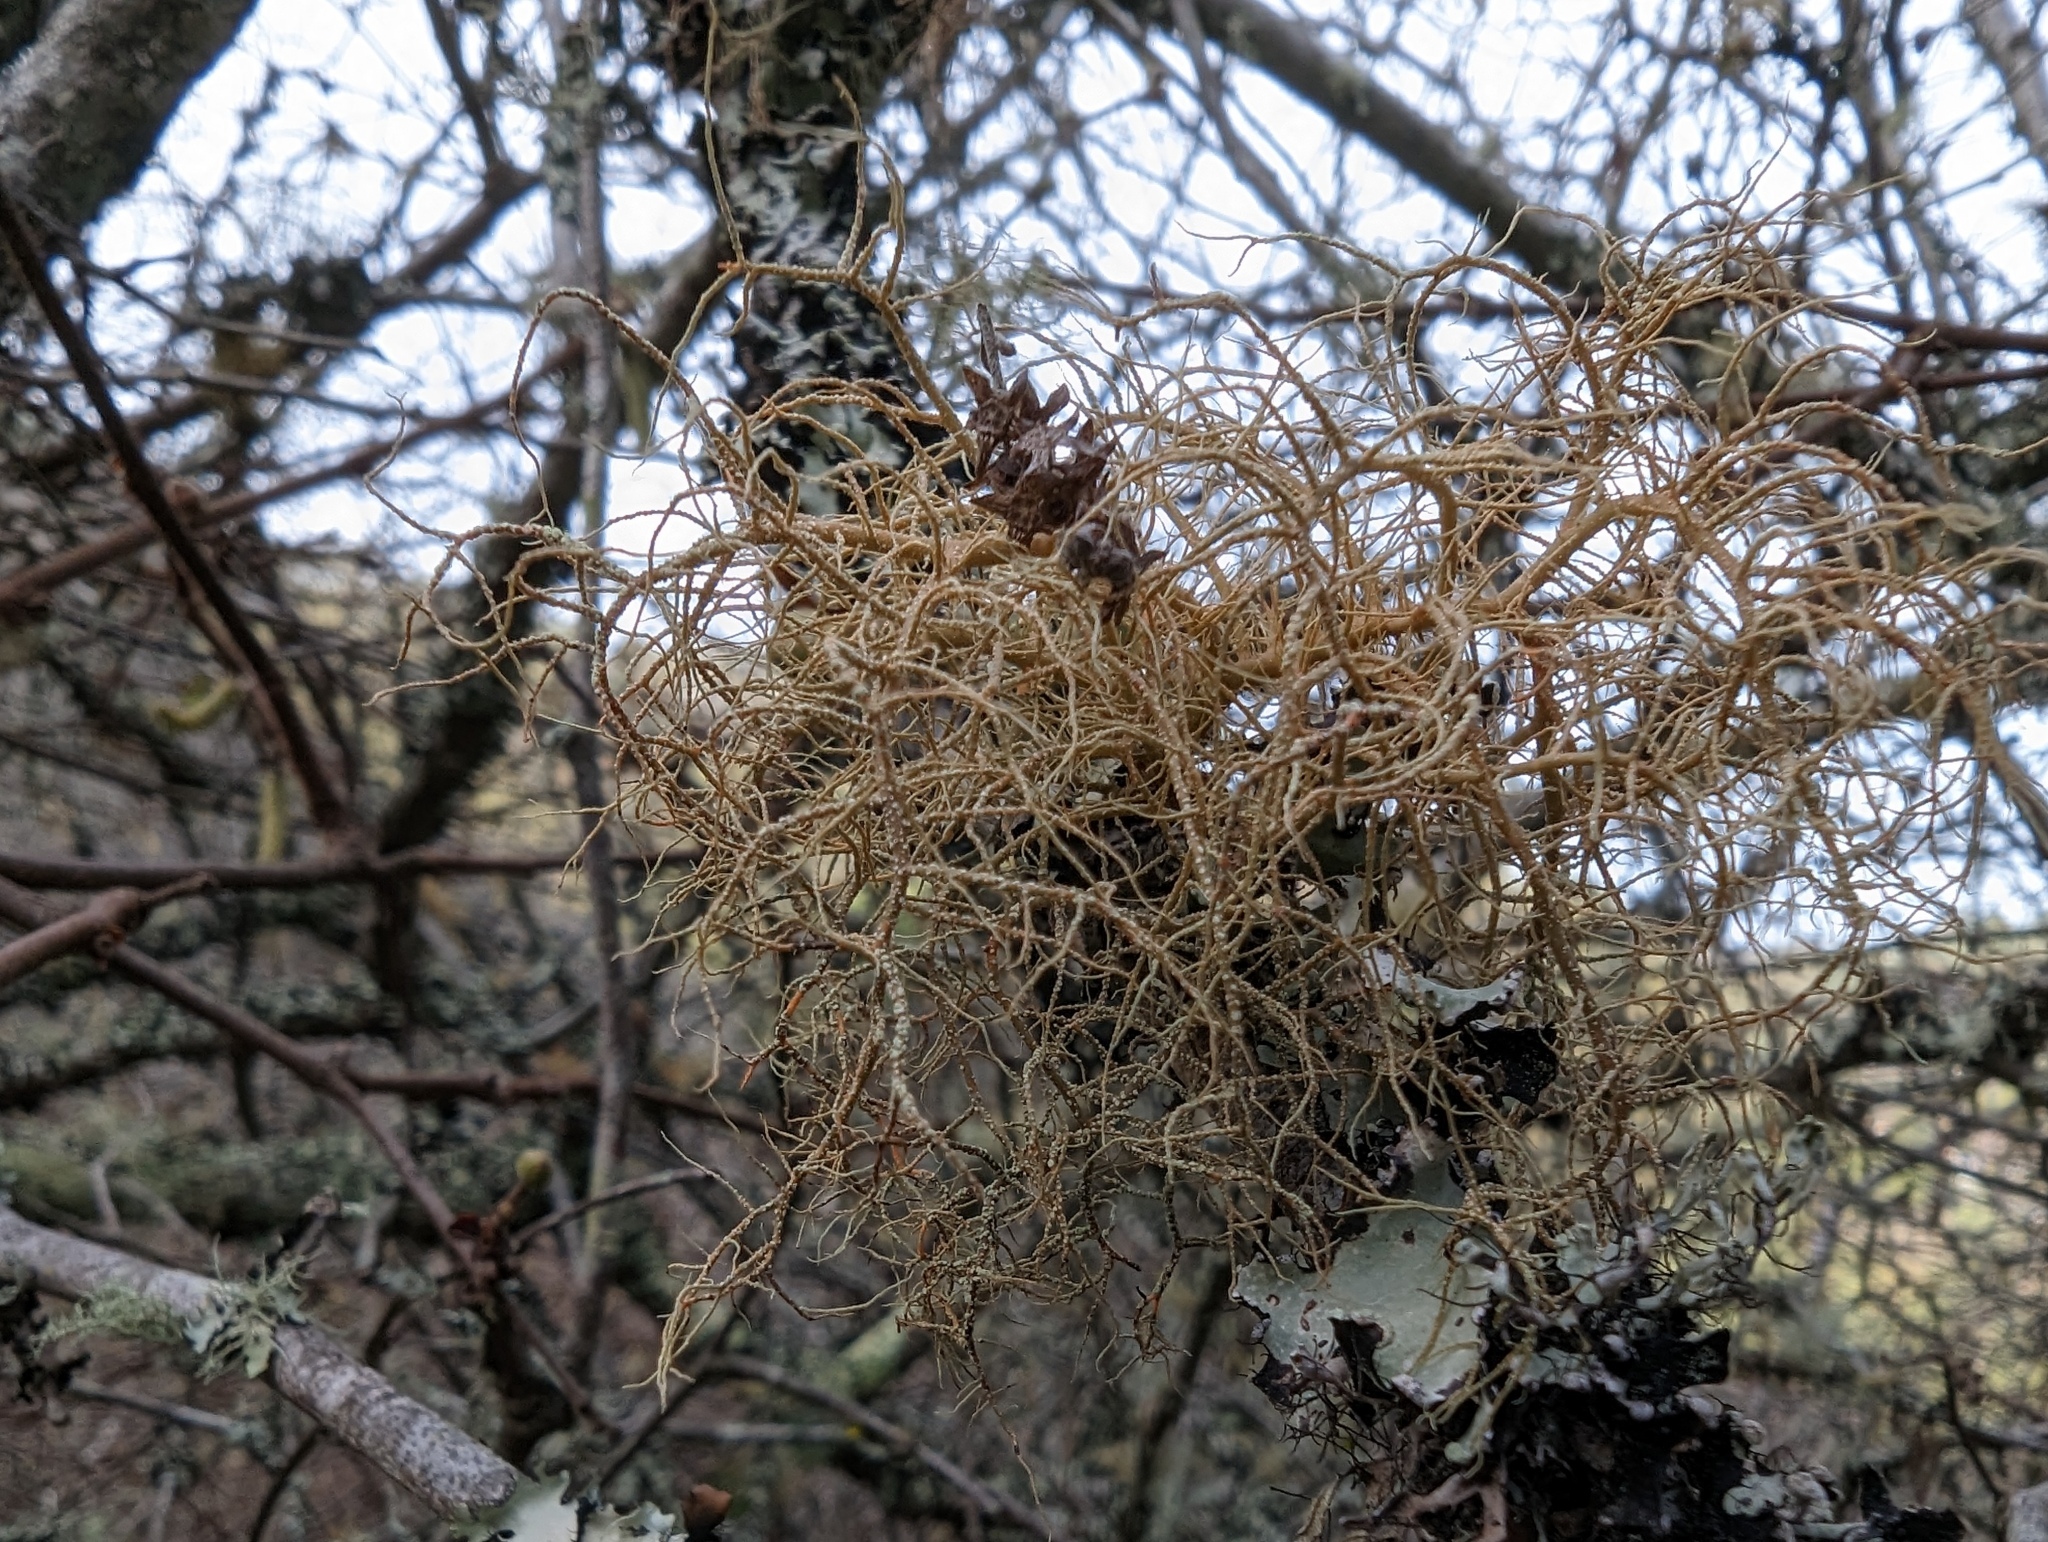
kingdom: Fungi
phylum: Ascomycota
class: Lecanoromycetes
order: Lecanorales
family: Parmeliaceae
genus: Usnea
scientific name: Usnea rubicunda
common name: Red beard lichen
